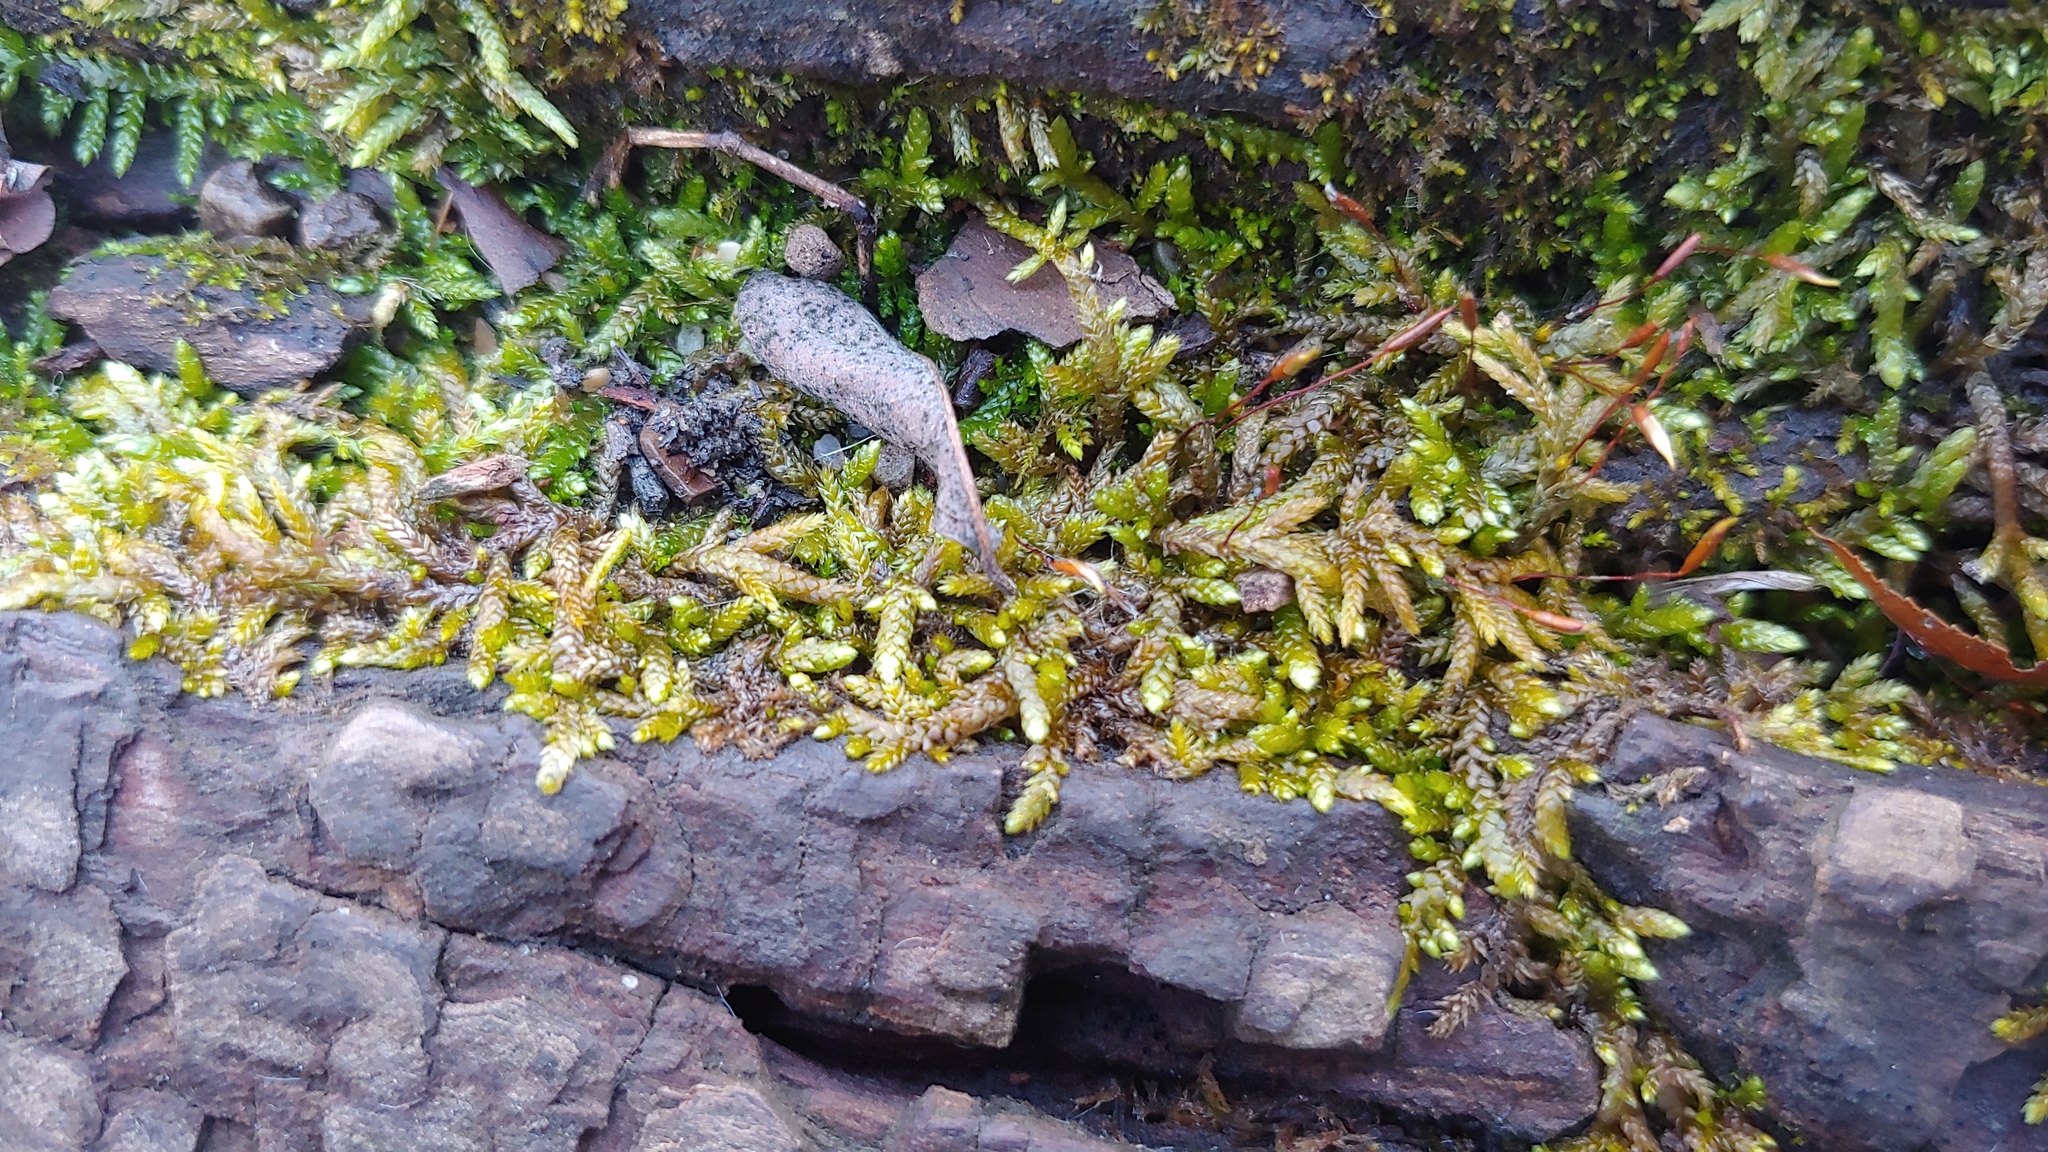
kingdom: Plantae
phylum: Bryophyta
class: Bryopsida
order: Hypnales
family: Brachytheciaceae
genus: Bryoandersonia
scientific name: Bryoandersonia illecebra
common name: Spoon-leaved moss
